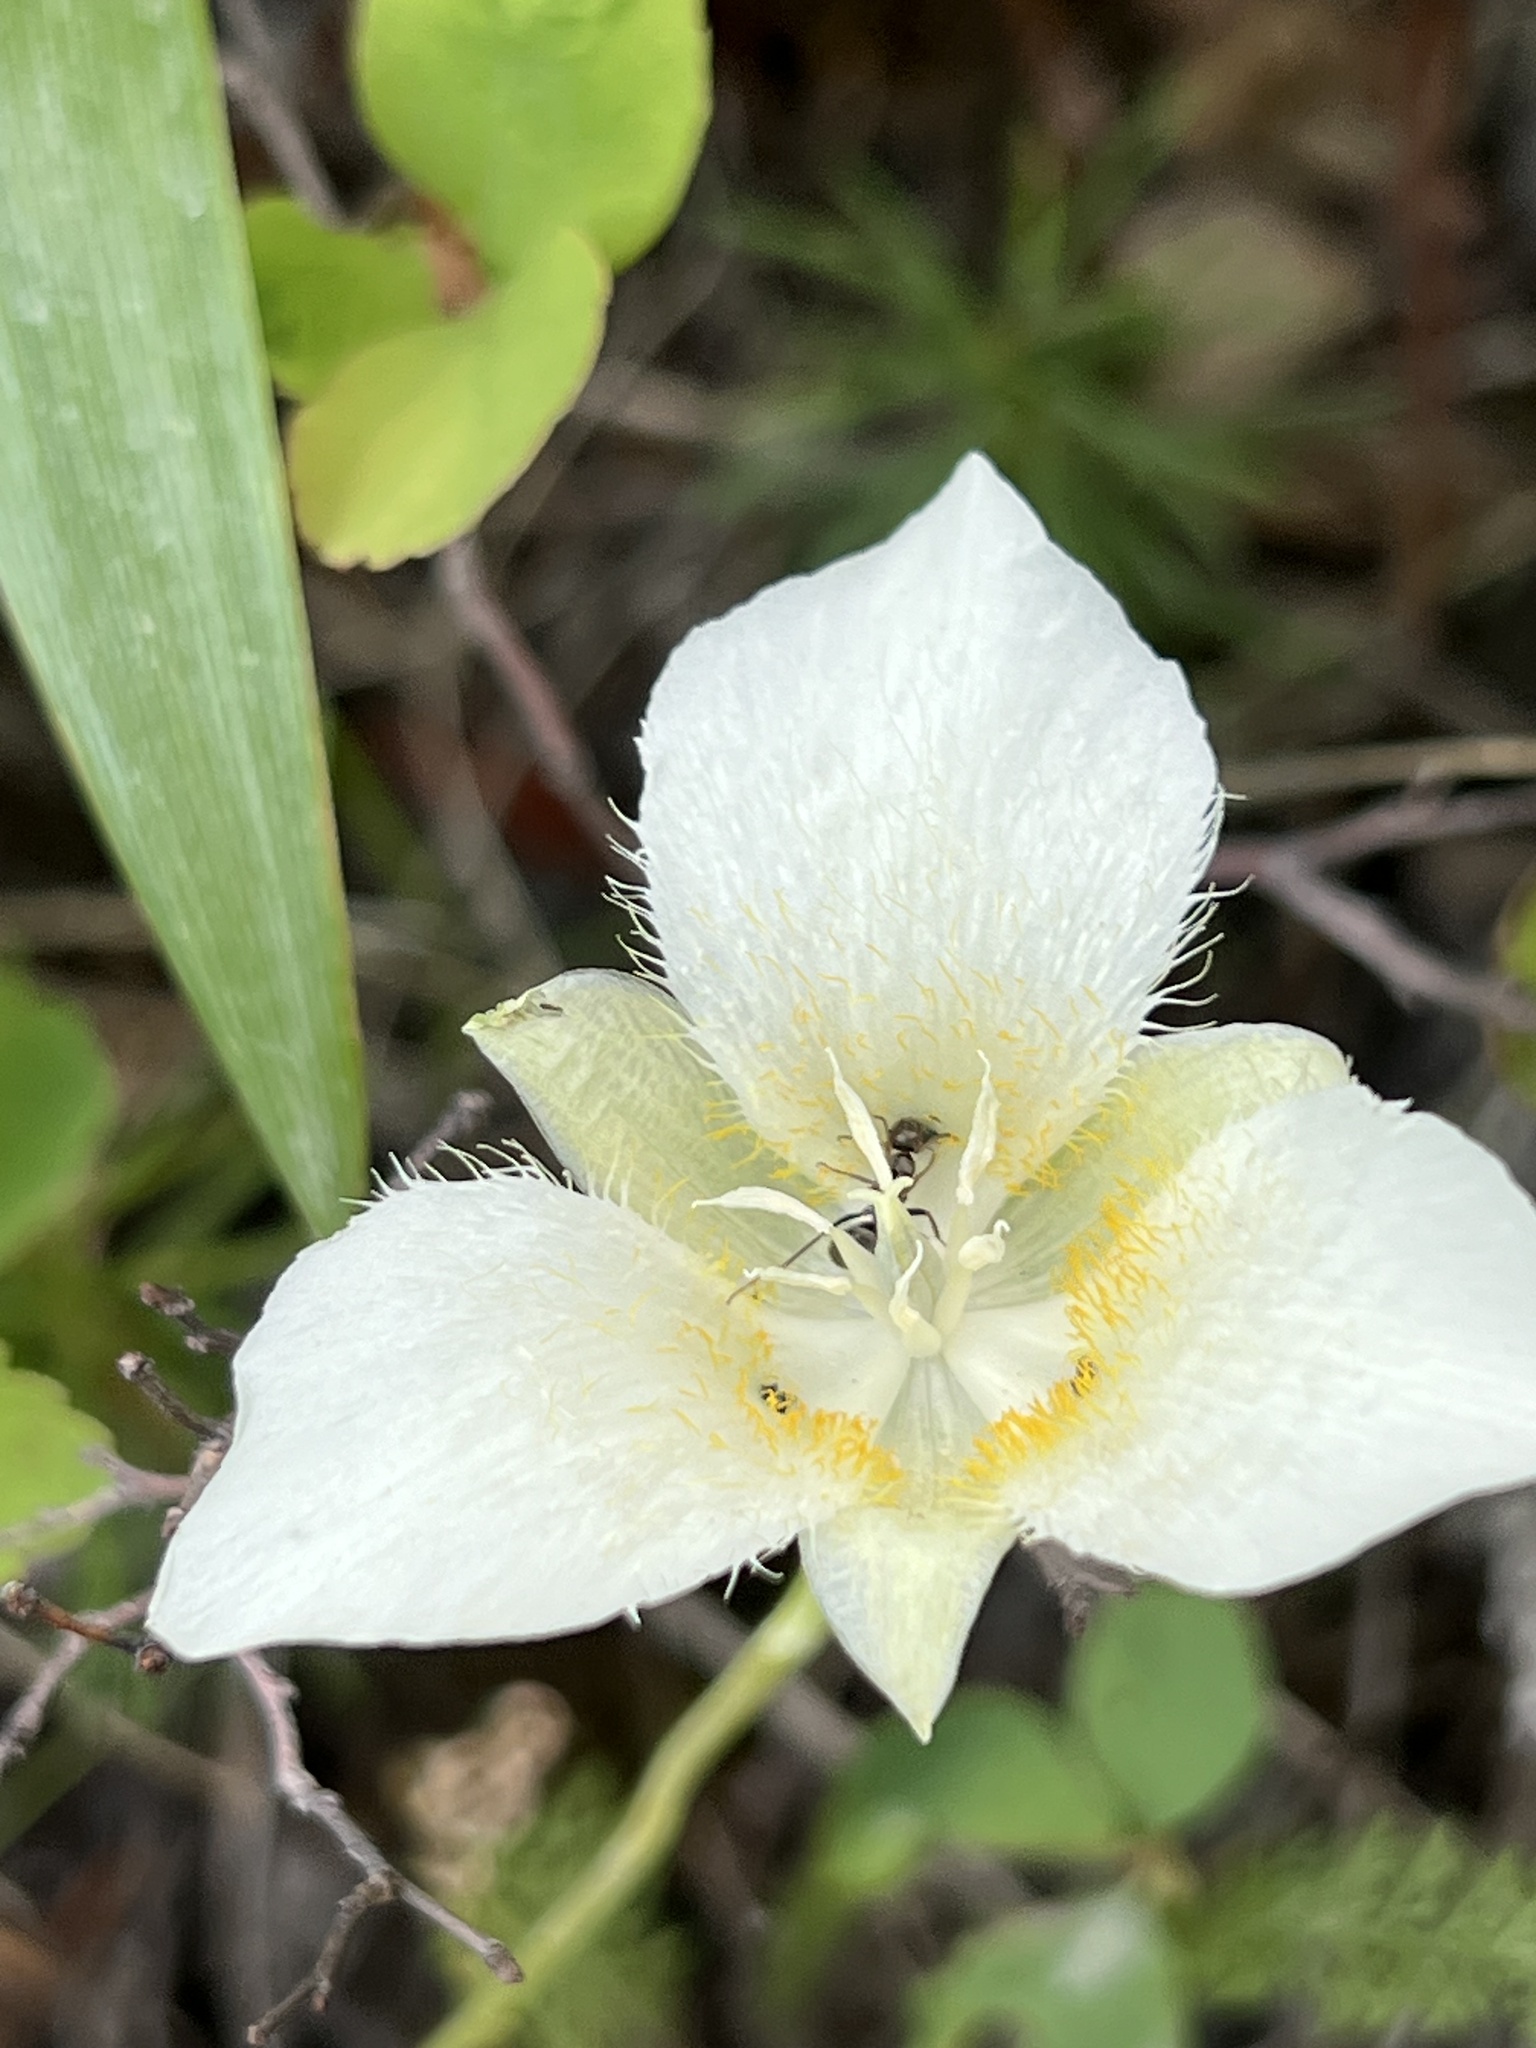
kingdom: Plantae
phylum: Tracheophyta
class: Liliopsida
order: Liliales
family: Liliaceae
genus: Calochortus
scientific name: Calochortus apiculatus
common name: Baker's mariposa lily
